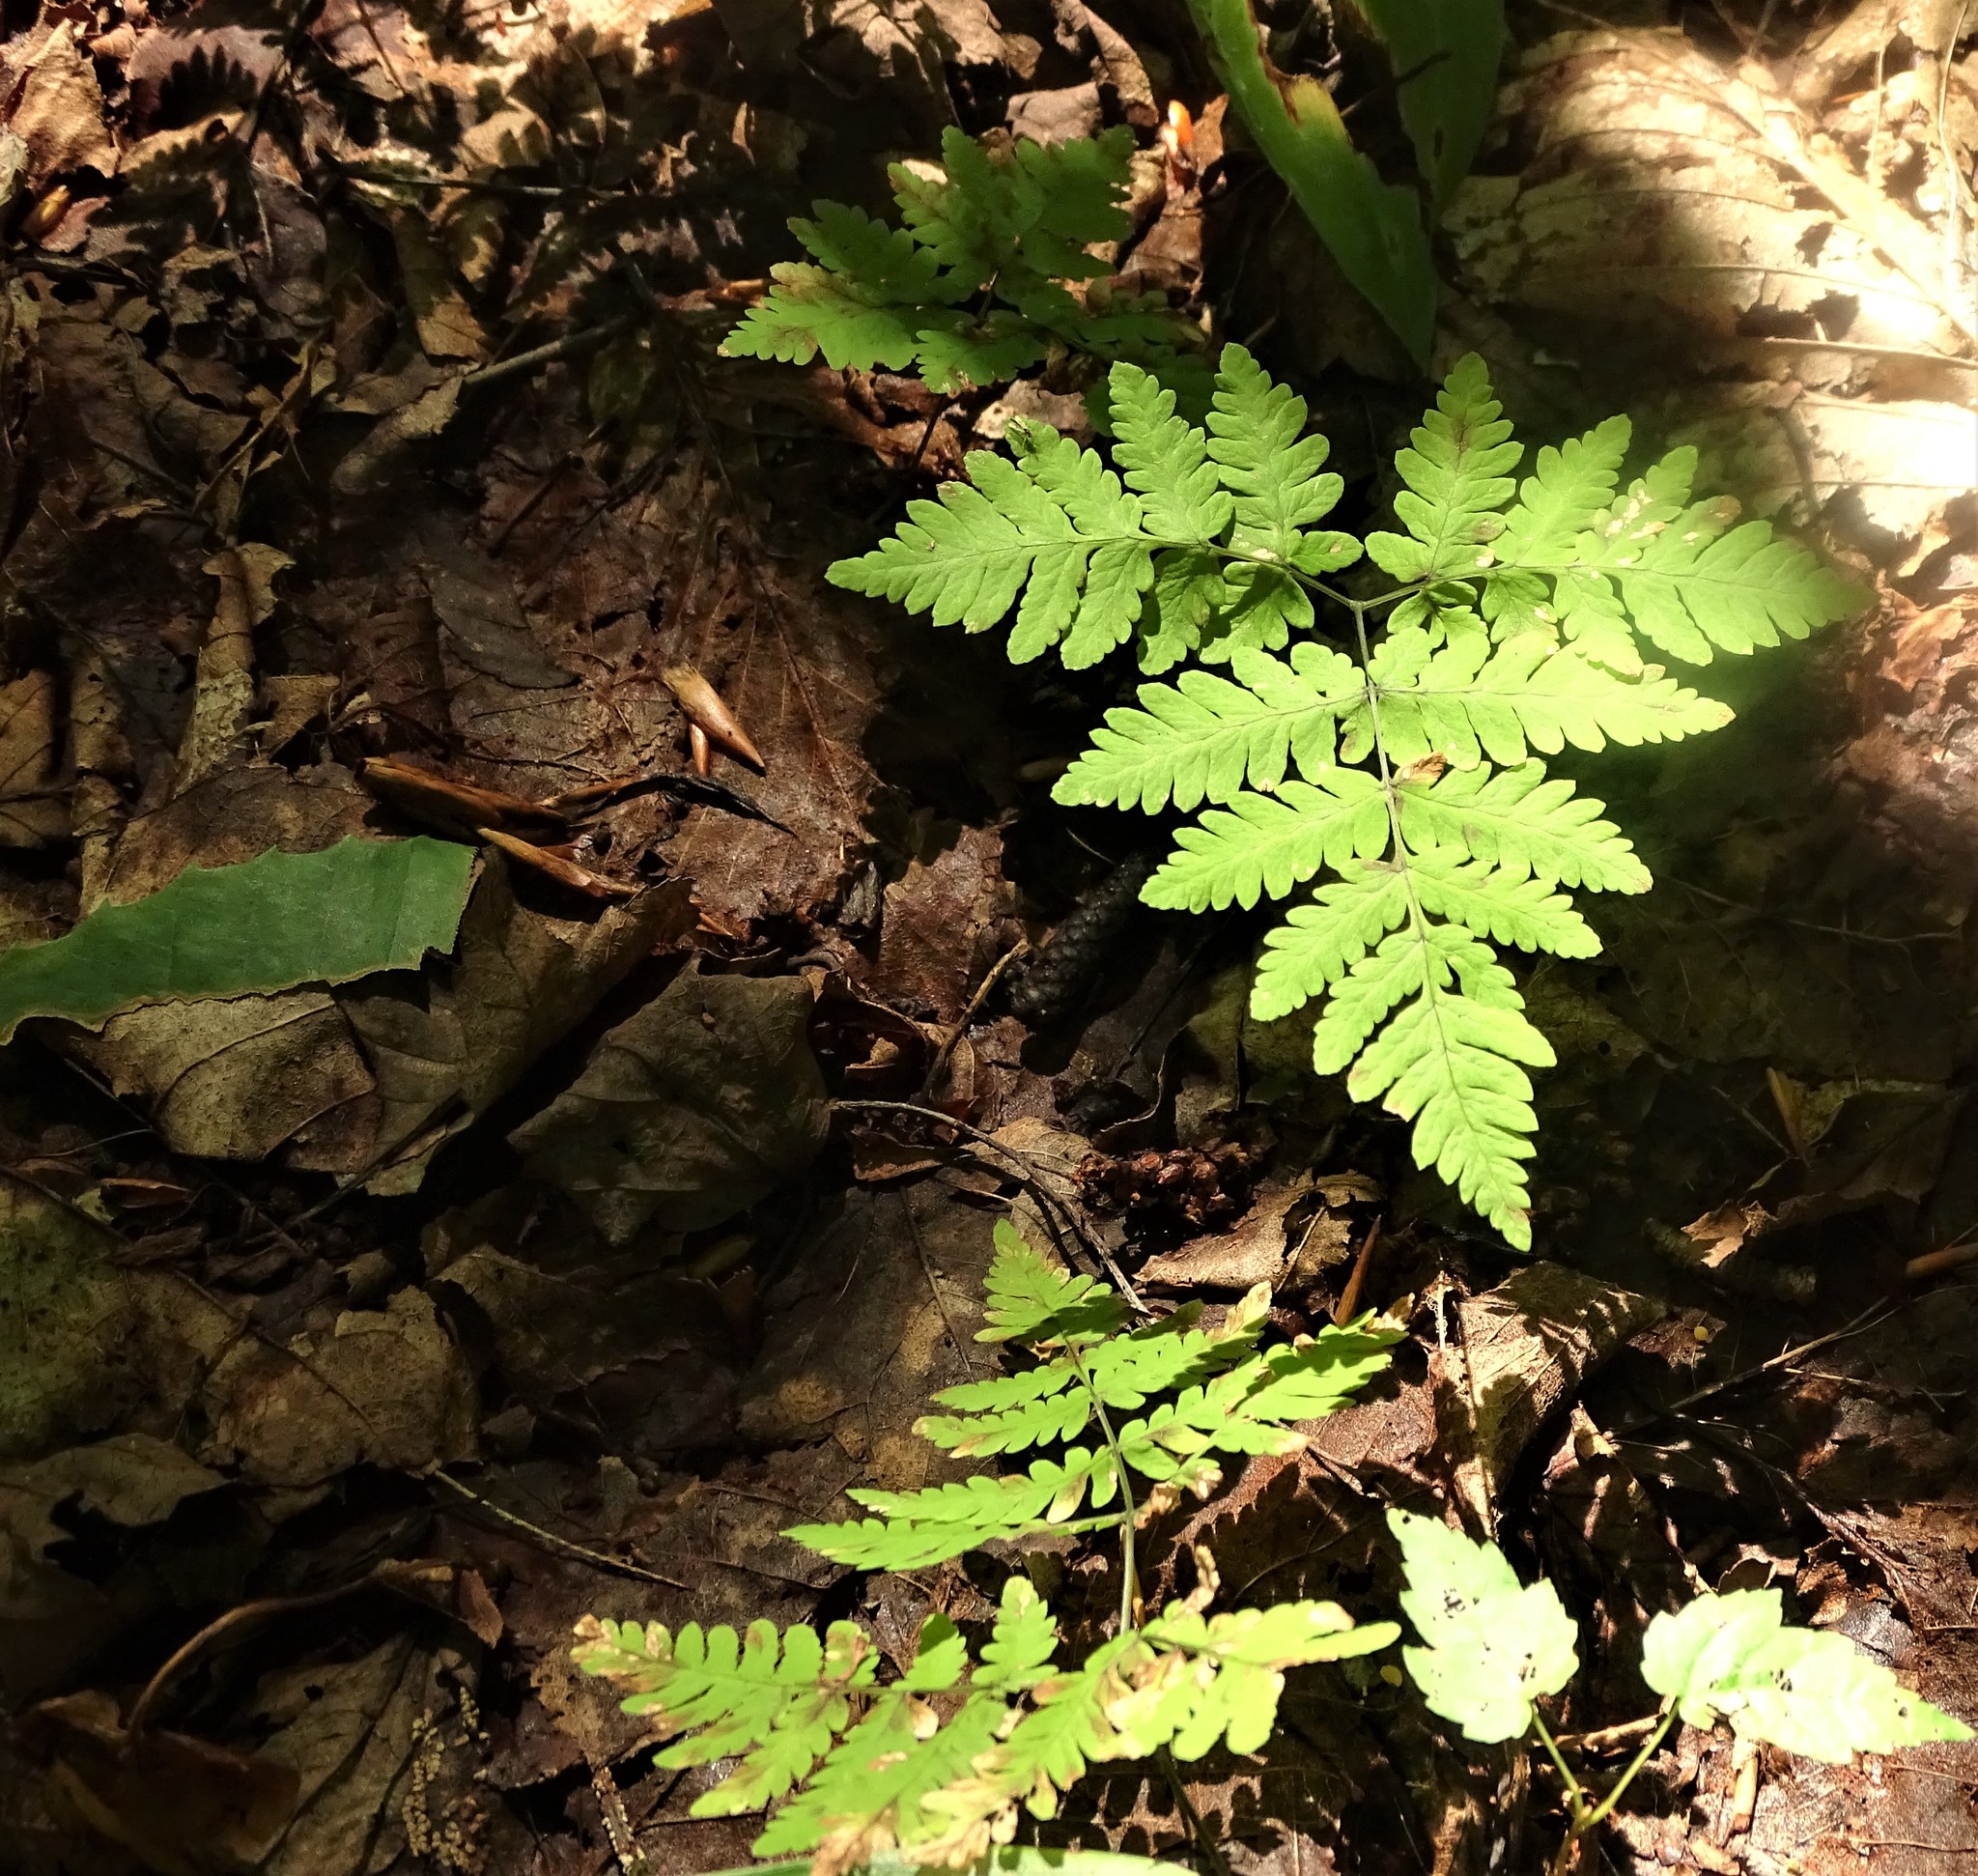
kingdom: Plantae
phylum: Tracheophyta
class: Polypodiopsida
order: Polypodiales
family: Cystopteridaceae
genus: Gymnocarpium
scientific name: Gymnocarpium dryopteris
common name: Oak fern
